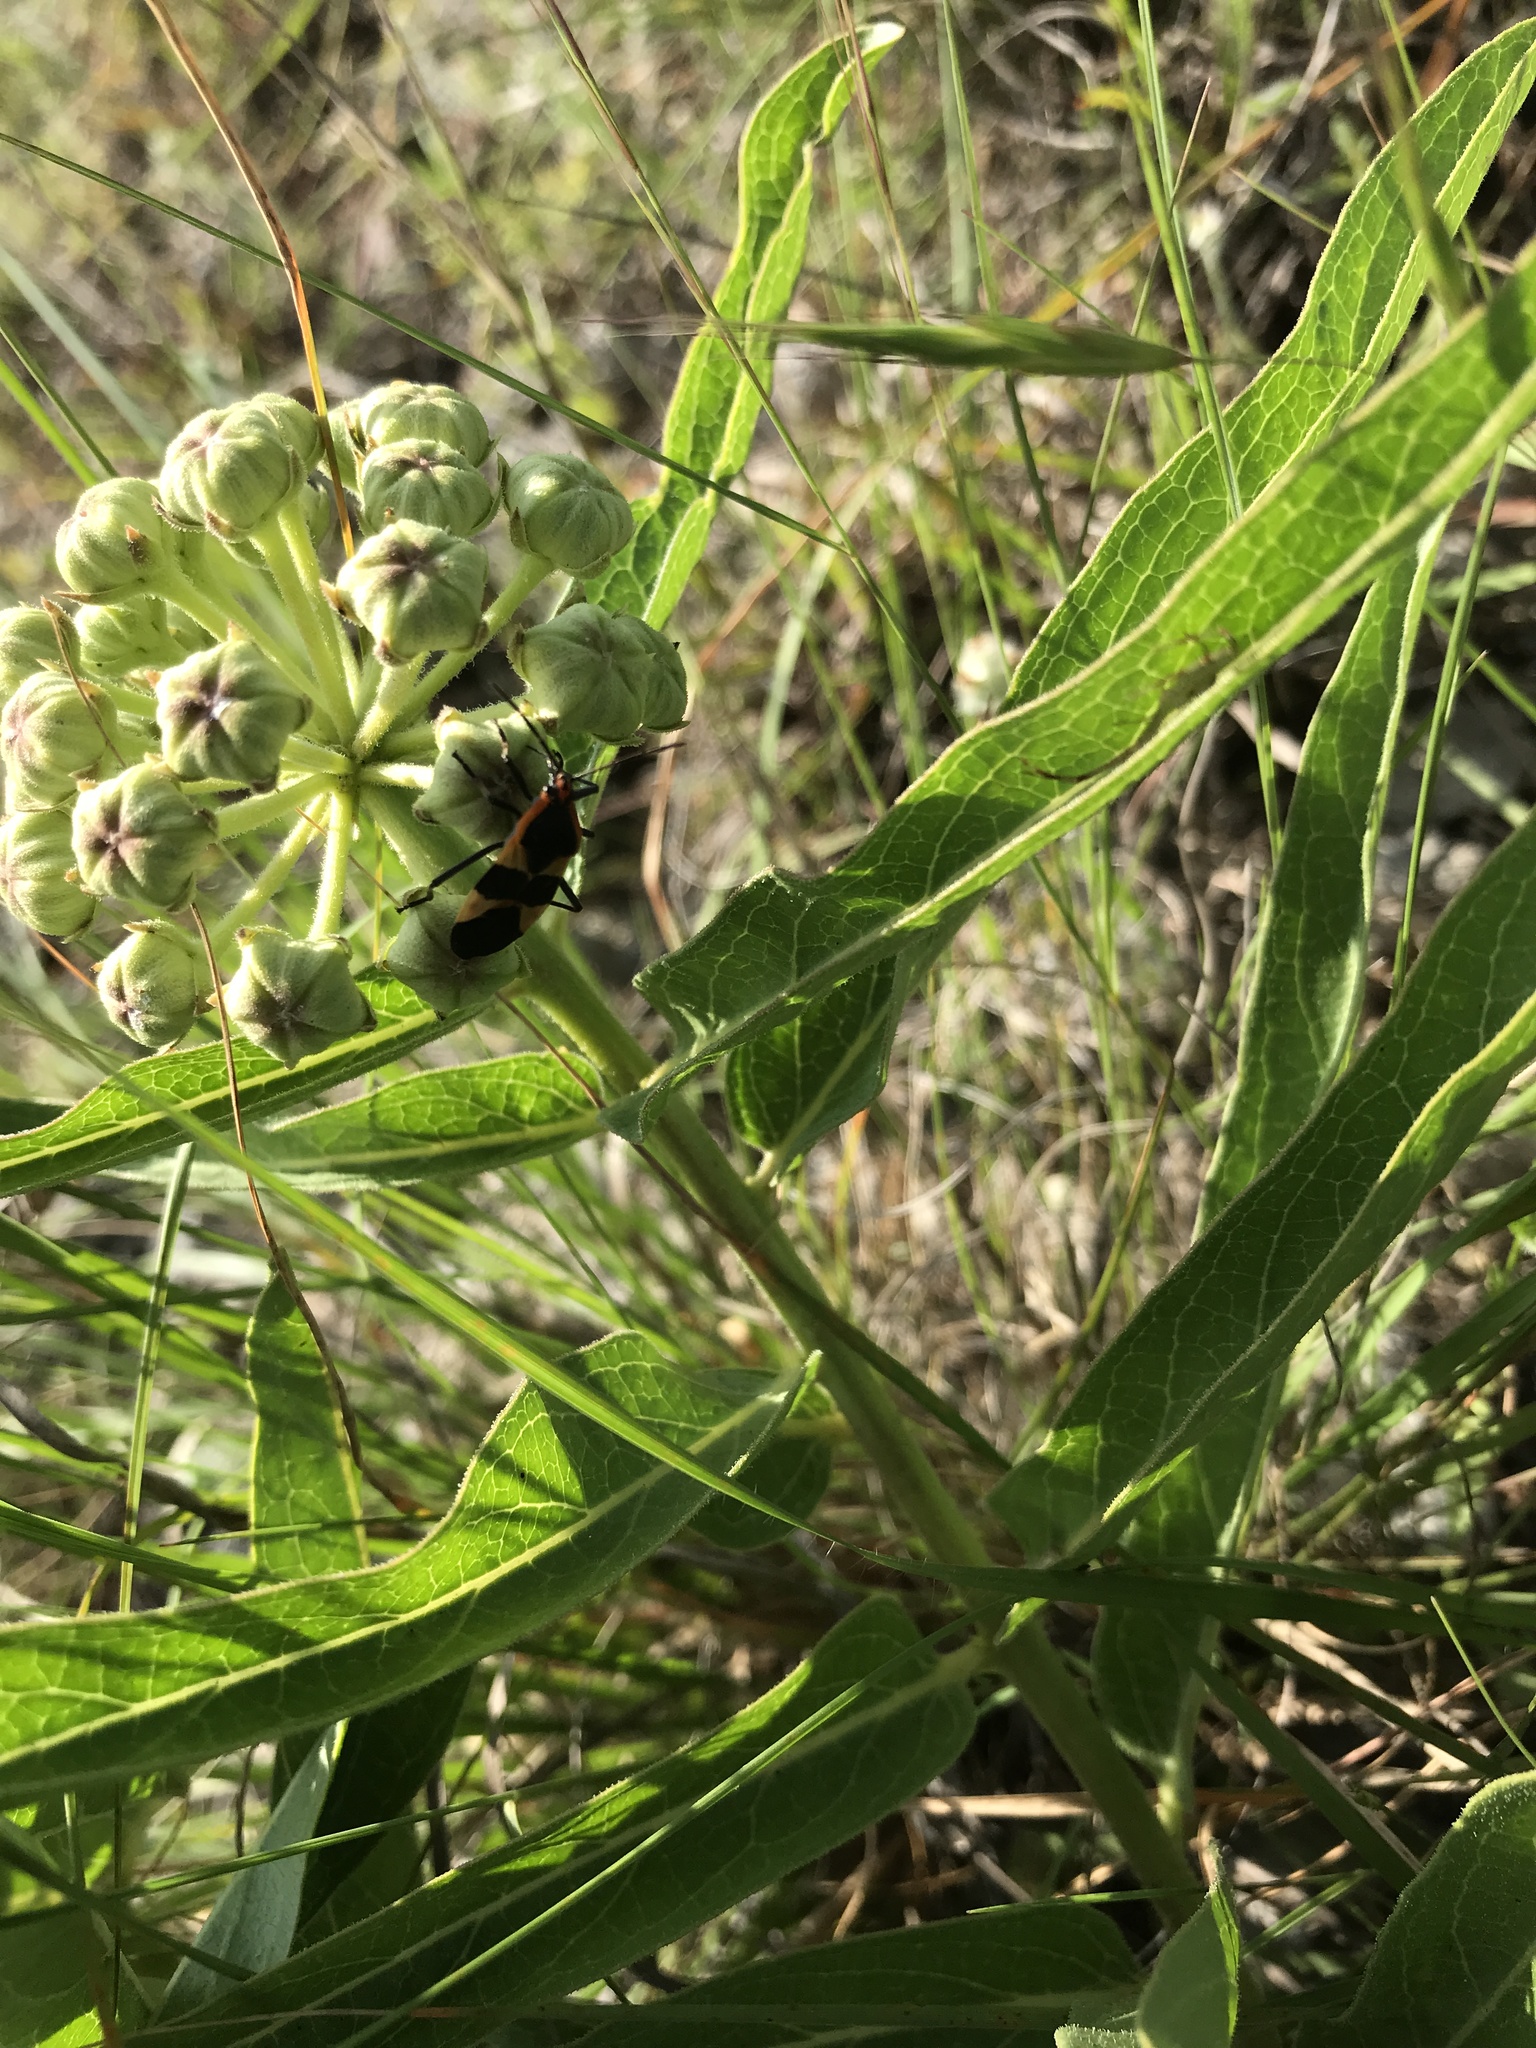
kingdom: Animalia
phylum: Arthropoda
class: Insecta
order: Hemiptera
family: Lygaeidae
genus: Oncopeltus
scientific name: Oncopeltus fasciatus
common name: Large milkweed bug
